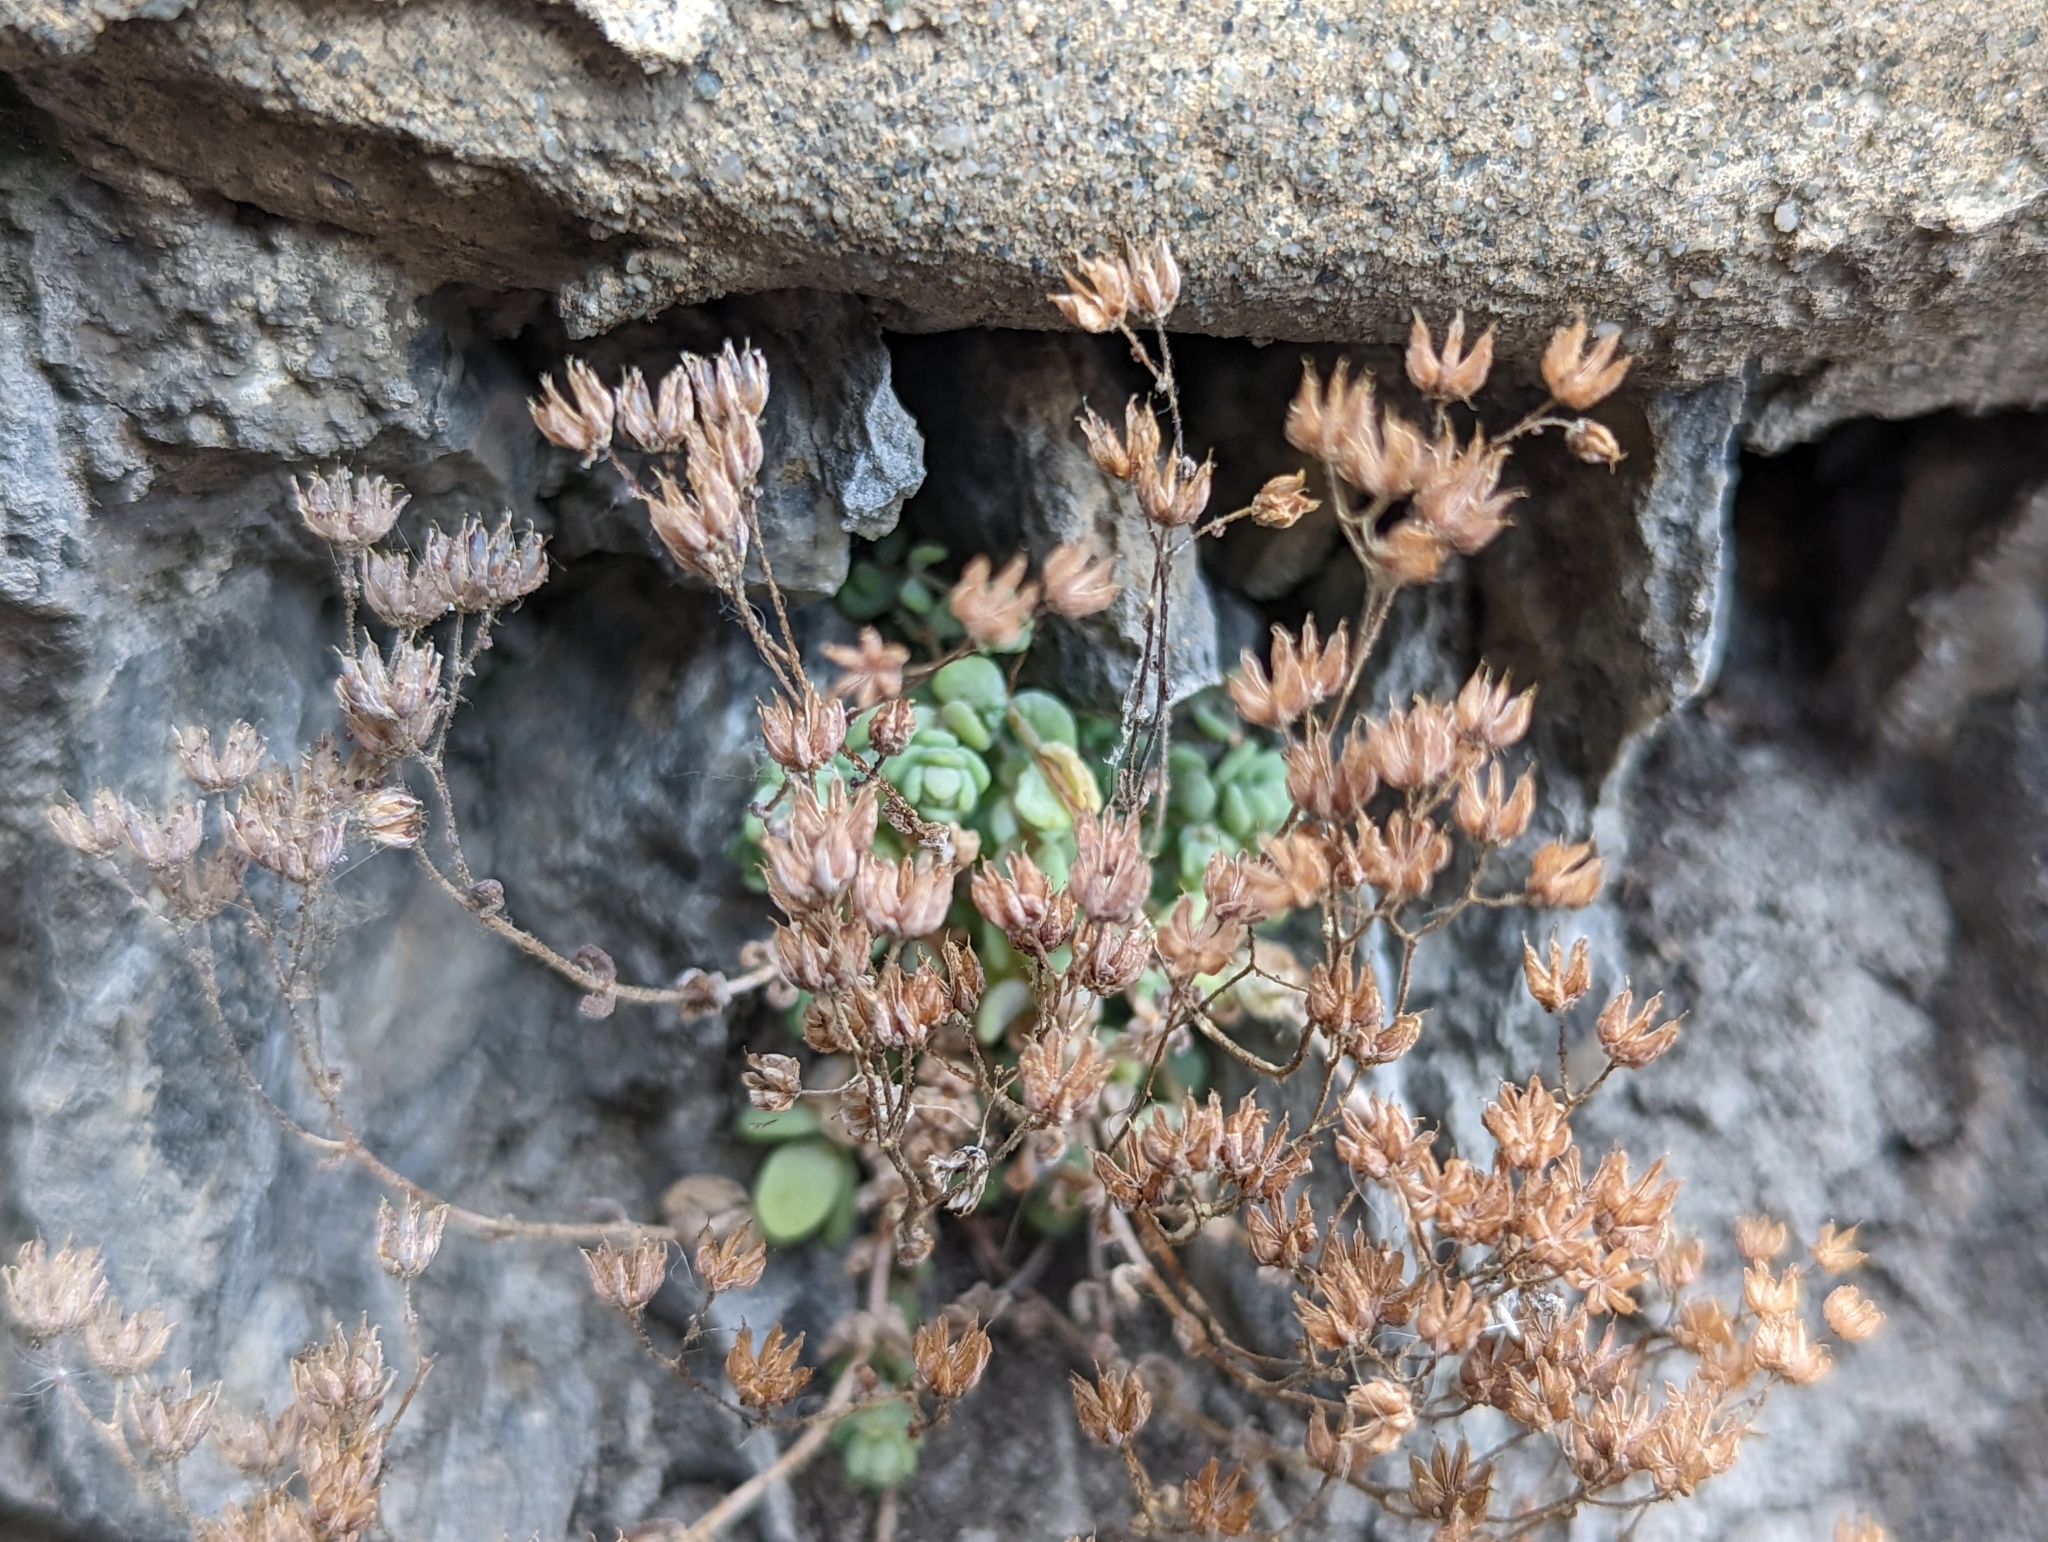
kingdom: Plantae
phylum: Tracheophyta
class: Magnoliopsida
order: Saxifragales
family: Crassulaceae
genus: Sedum
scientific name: Sedum dasyphyllum
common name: Thick-leaf stonecrop
